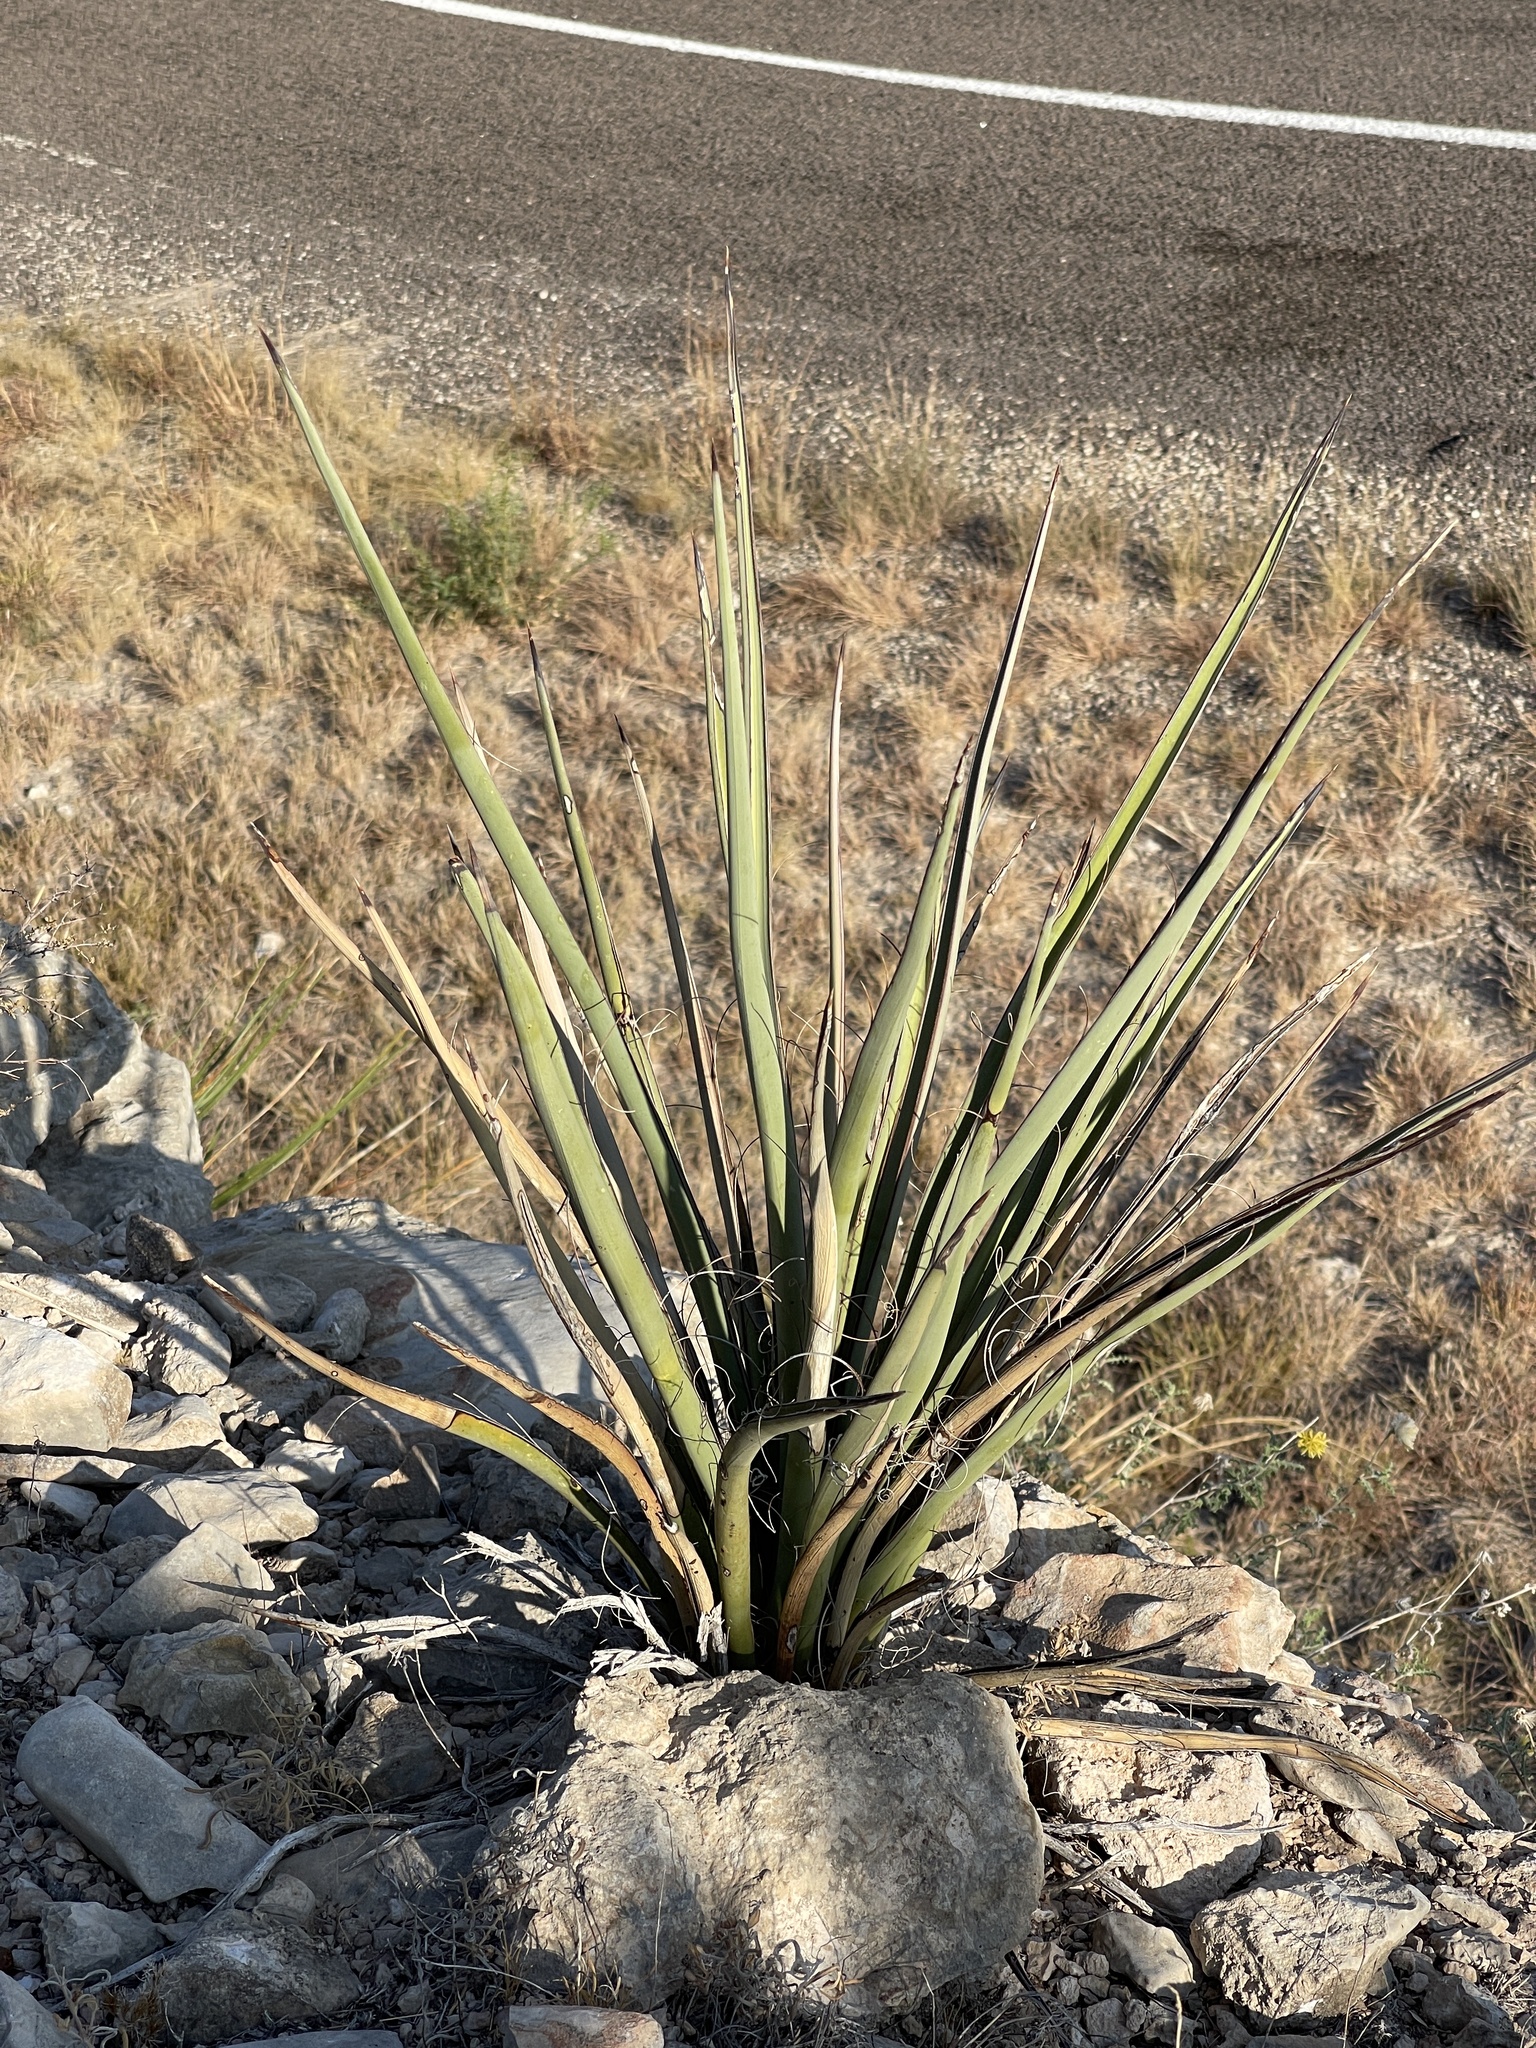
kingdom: Plantae
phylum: Tracheophyta
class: Liliopsida
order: Asparagales
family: Asparagaceae
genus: Yucca
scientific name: Yucca treculiana
